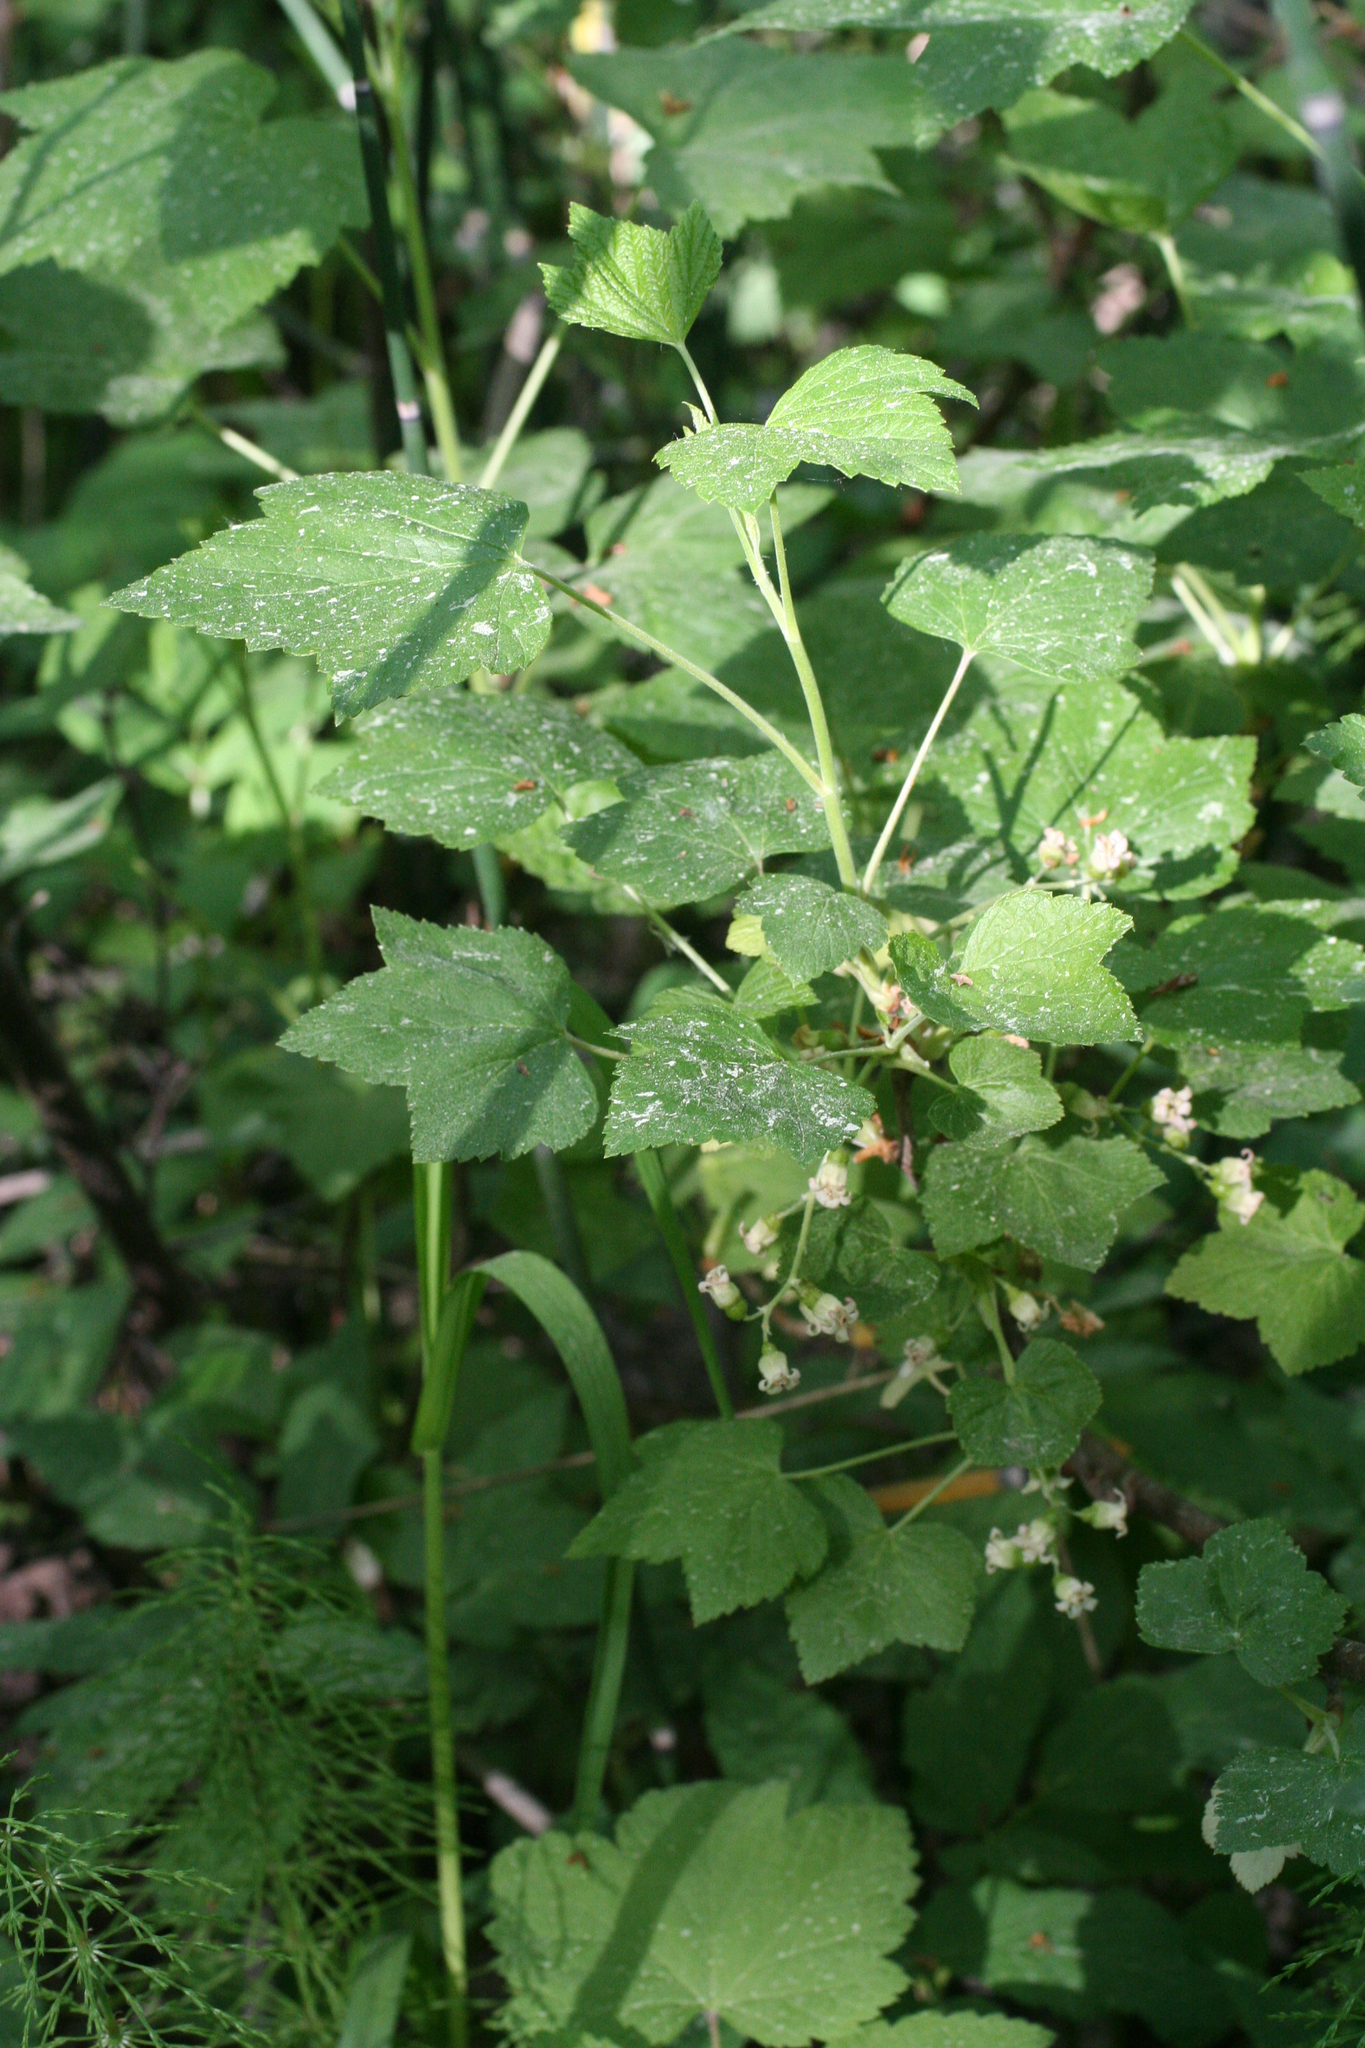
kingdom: Plantae
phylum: Tracheophyta
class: Magnoliopsida
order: Saxifragales
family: Grossulariaceae
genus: Ribes
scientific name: Ribes nigrum
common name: Black currant
